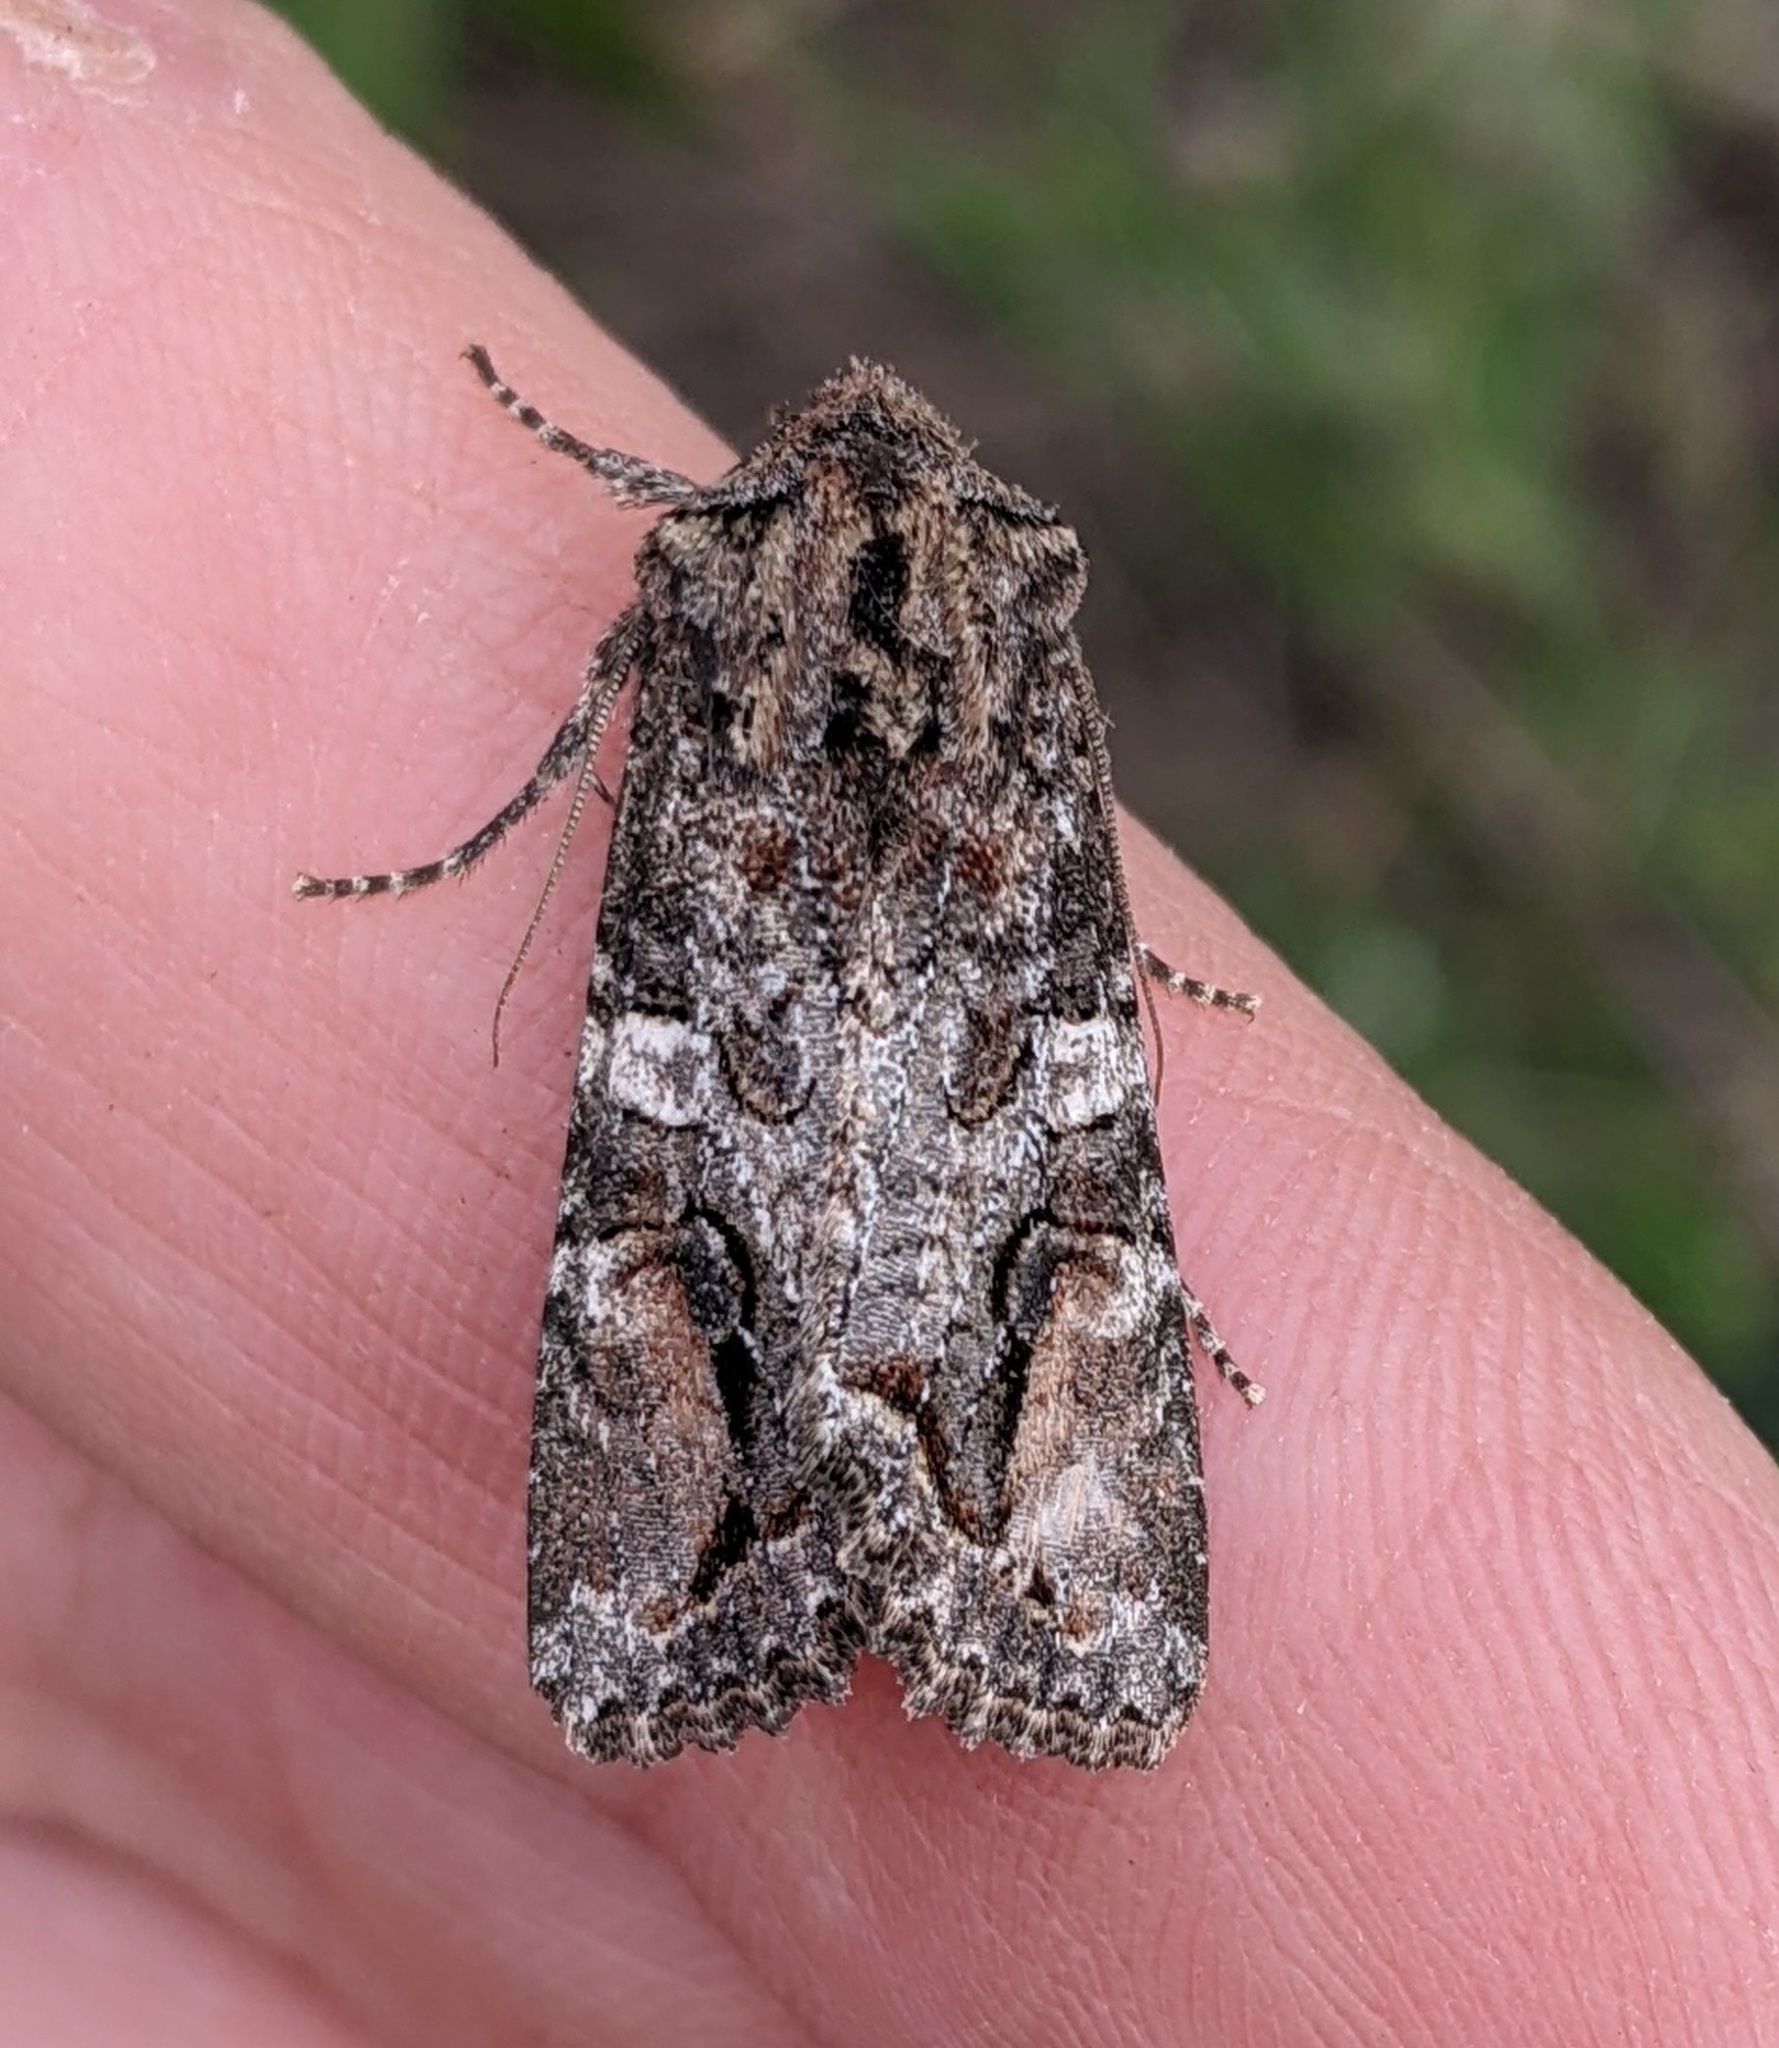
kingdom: Animalia
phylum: Arthropoda
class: Insecta
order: Lepidoptera
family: Noctuidae
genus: Egira
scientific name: Egira perlubens
